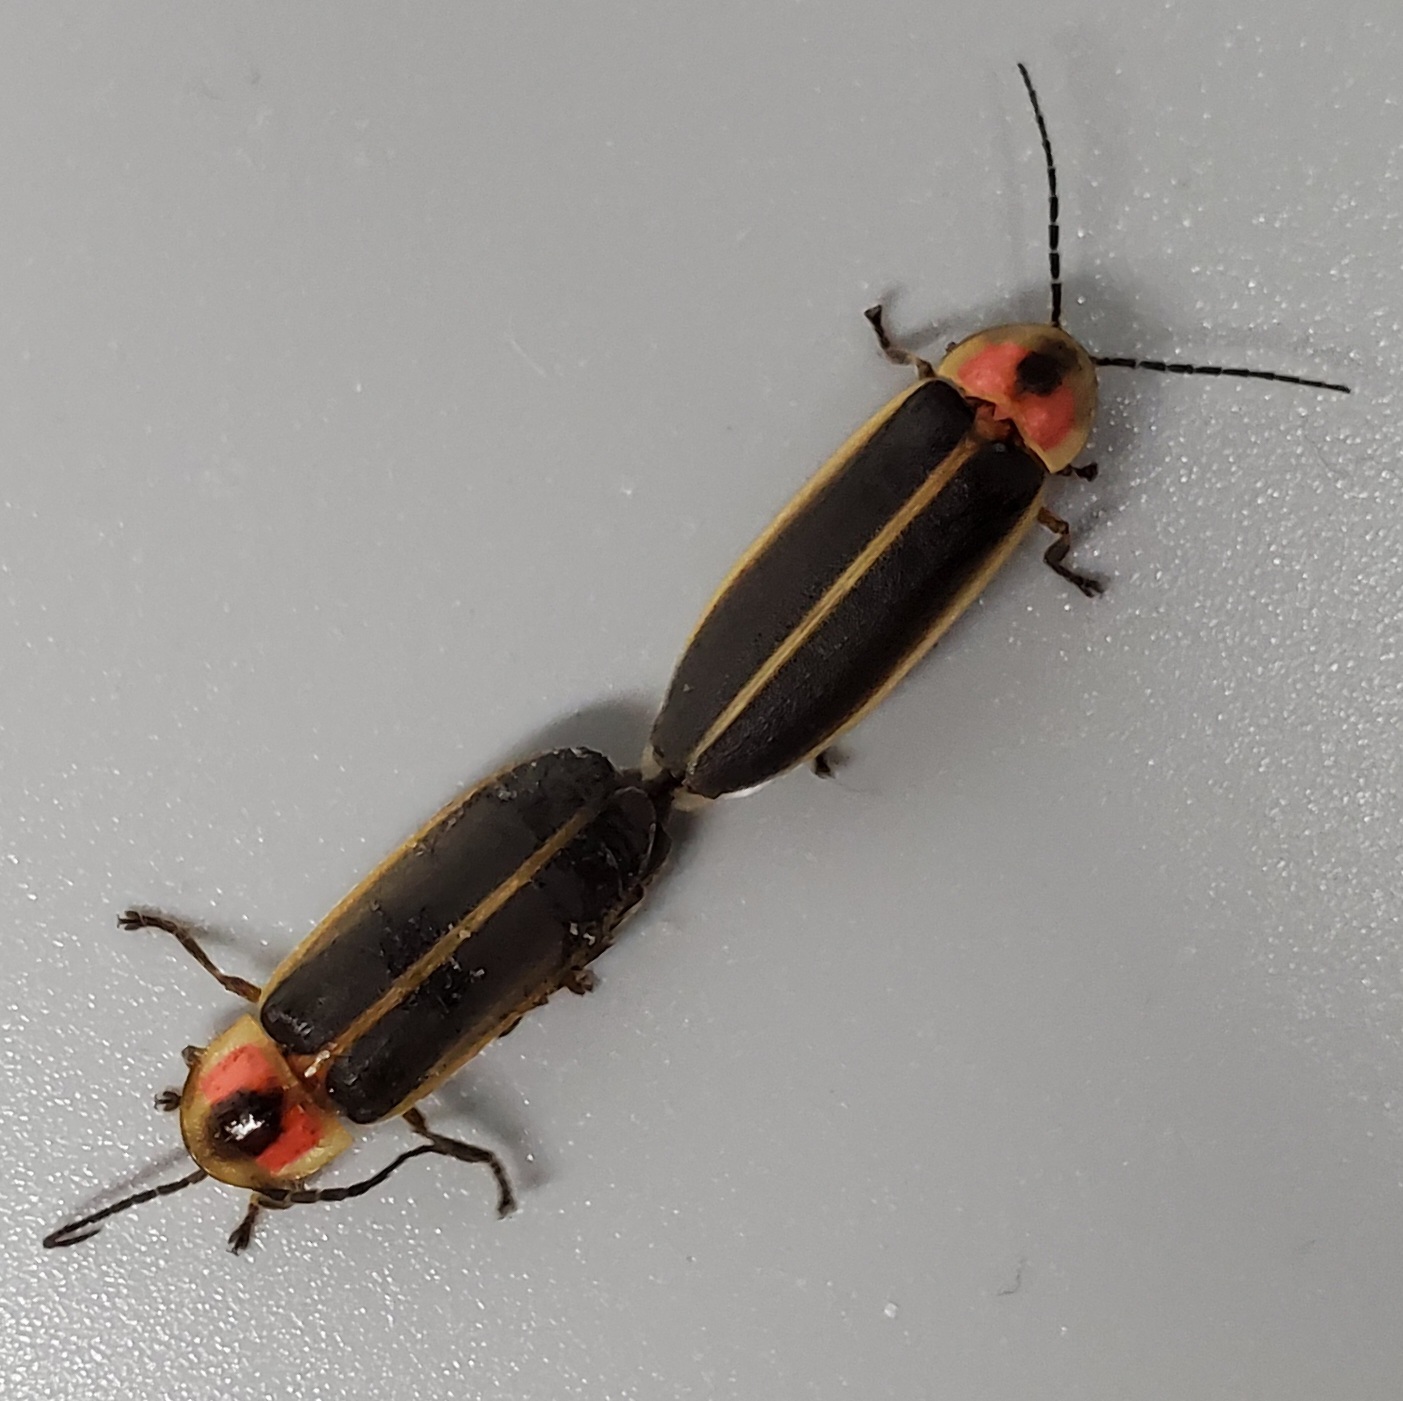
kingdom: Animalia
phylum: Arthropoda
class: Insecta
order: Coleoptera
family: Lampyridae
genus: Photinus
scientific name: Photinus pyralis
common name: Big dipper firefly
